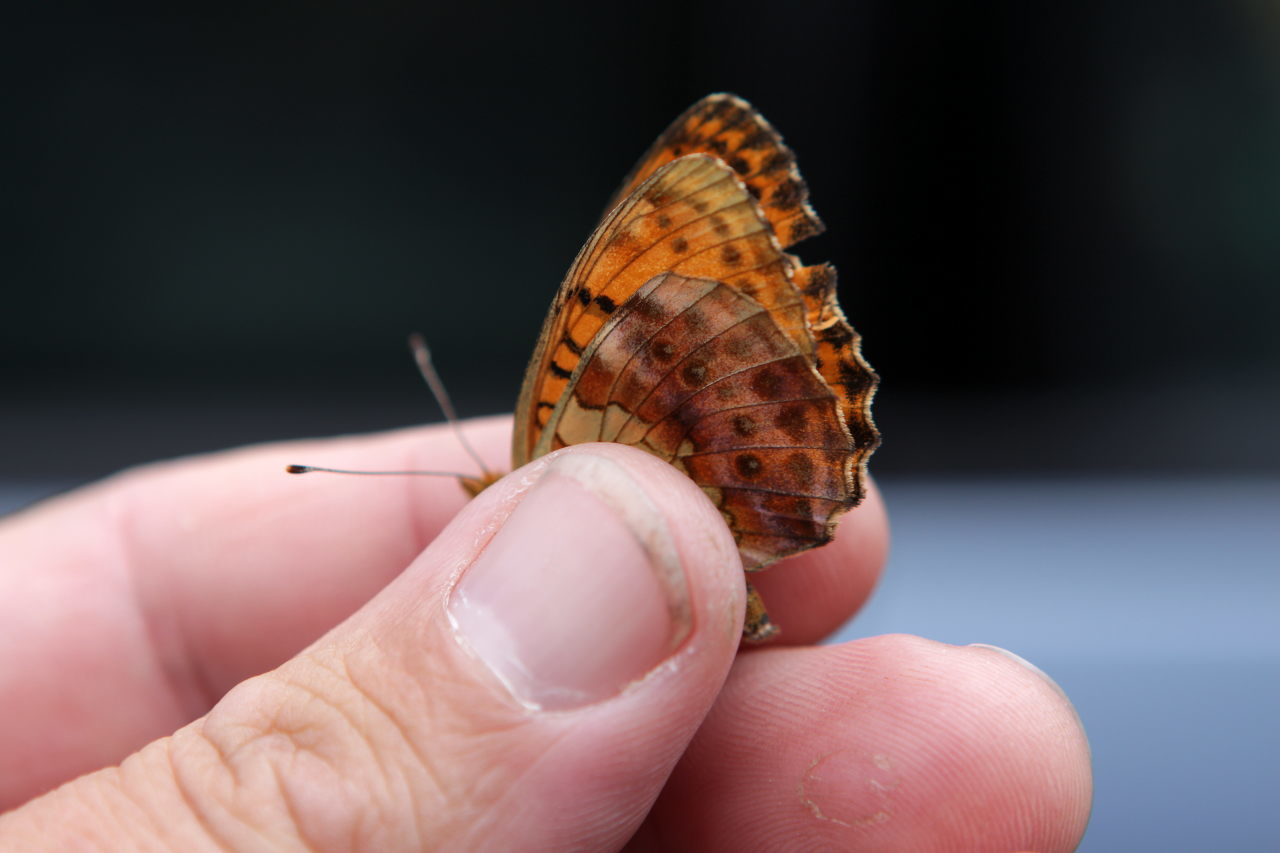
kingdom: Animalia
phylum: Arthropoda
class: Insecta
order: Lepidoptera
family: Nymphalidae
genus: Brenthis
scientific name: Brenthis daphne
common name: Marbled fritillary
